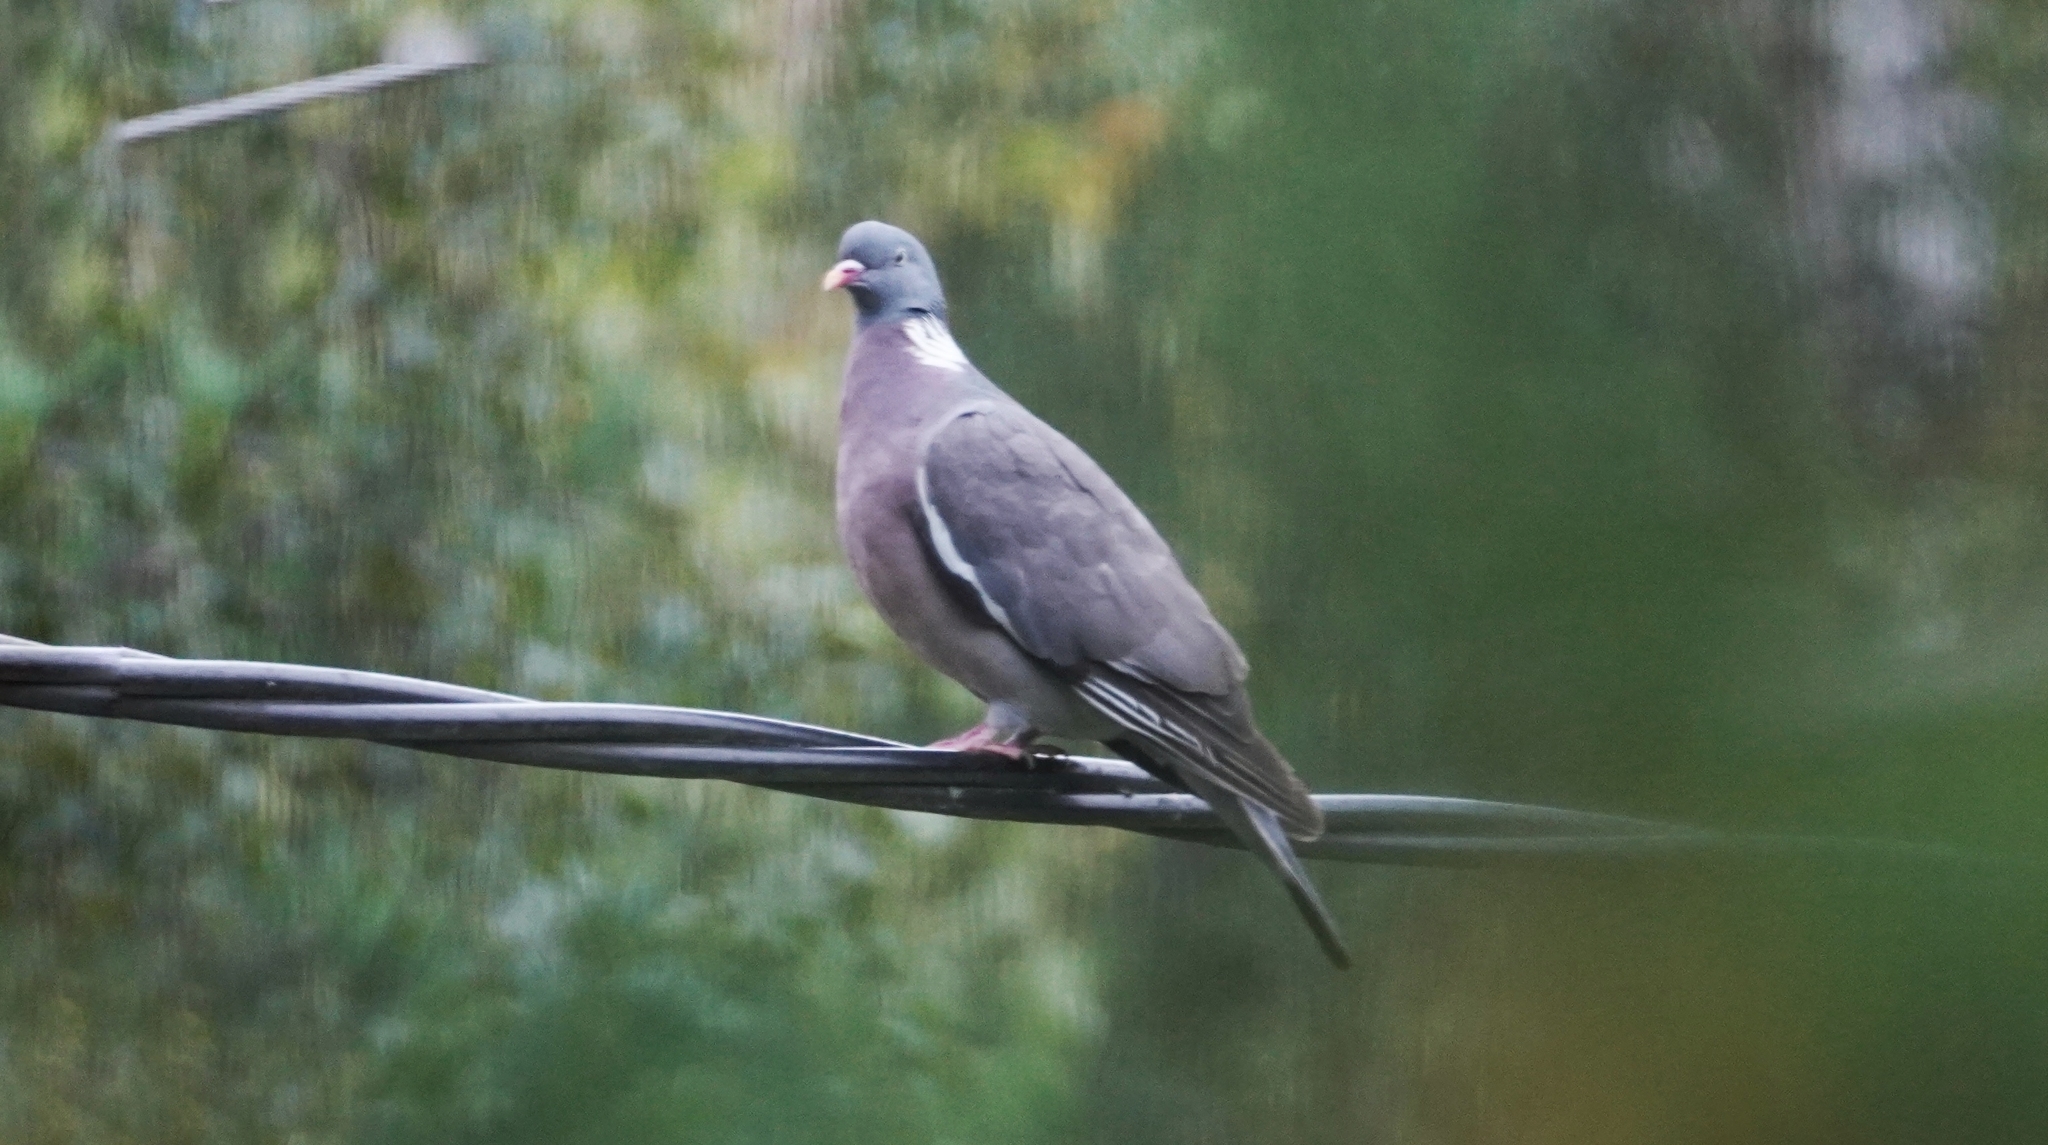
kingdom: Animalia
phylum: Chordata
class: Aves
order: Columbiformes
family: Columbidae
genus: Columba
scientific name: Columba palumbus
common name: Common wood pigeon
